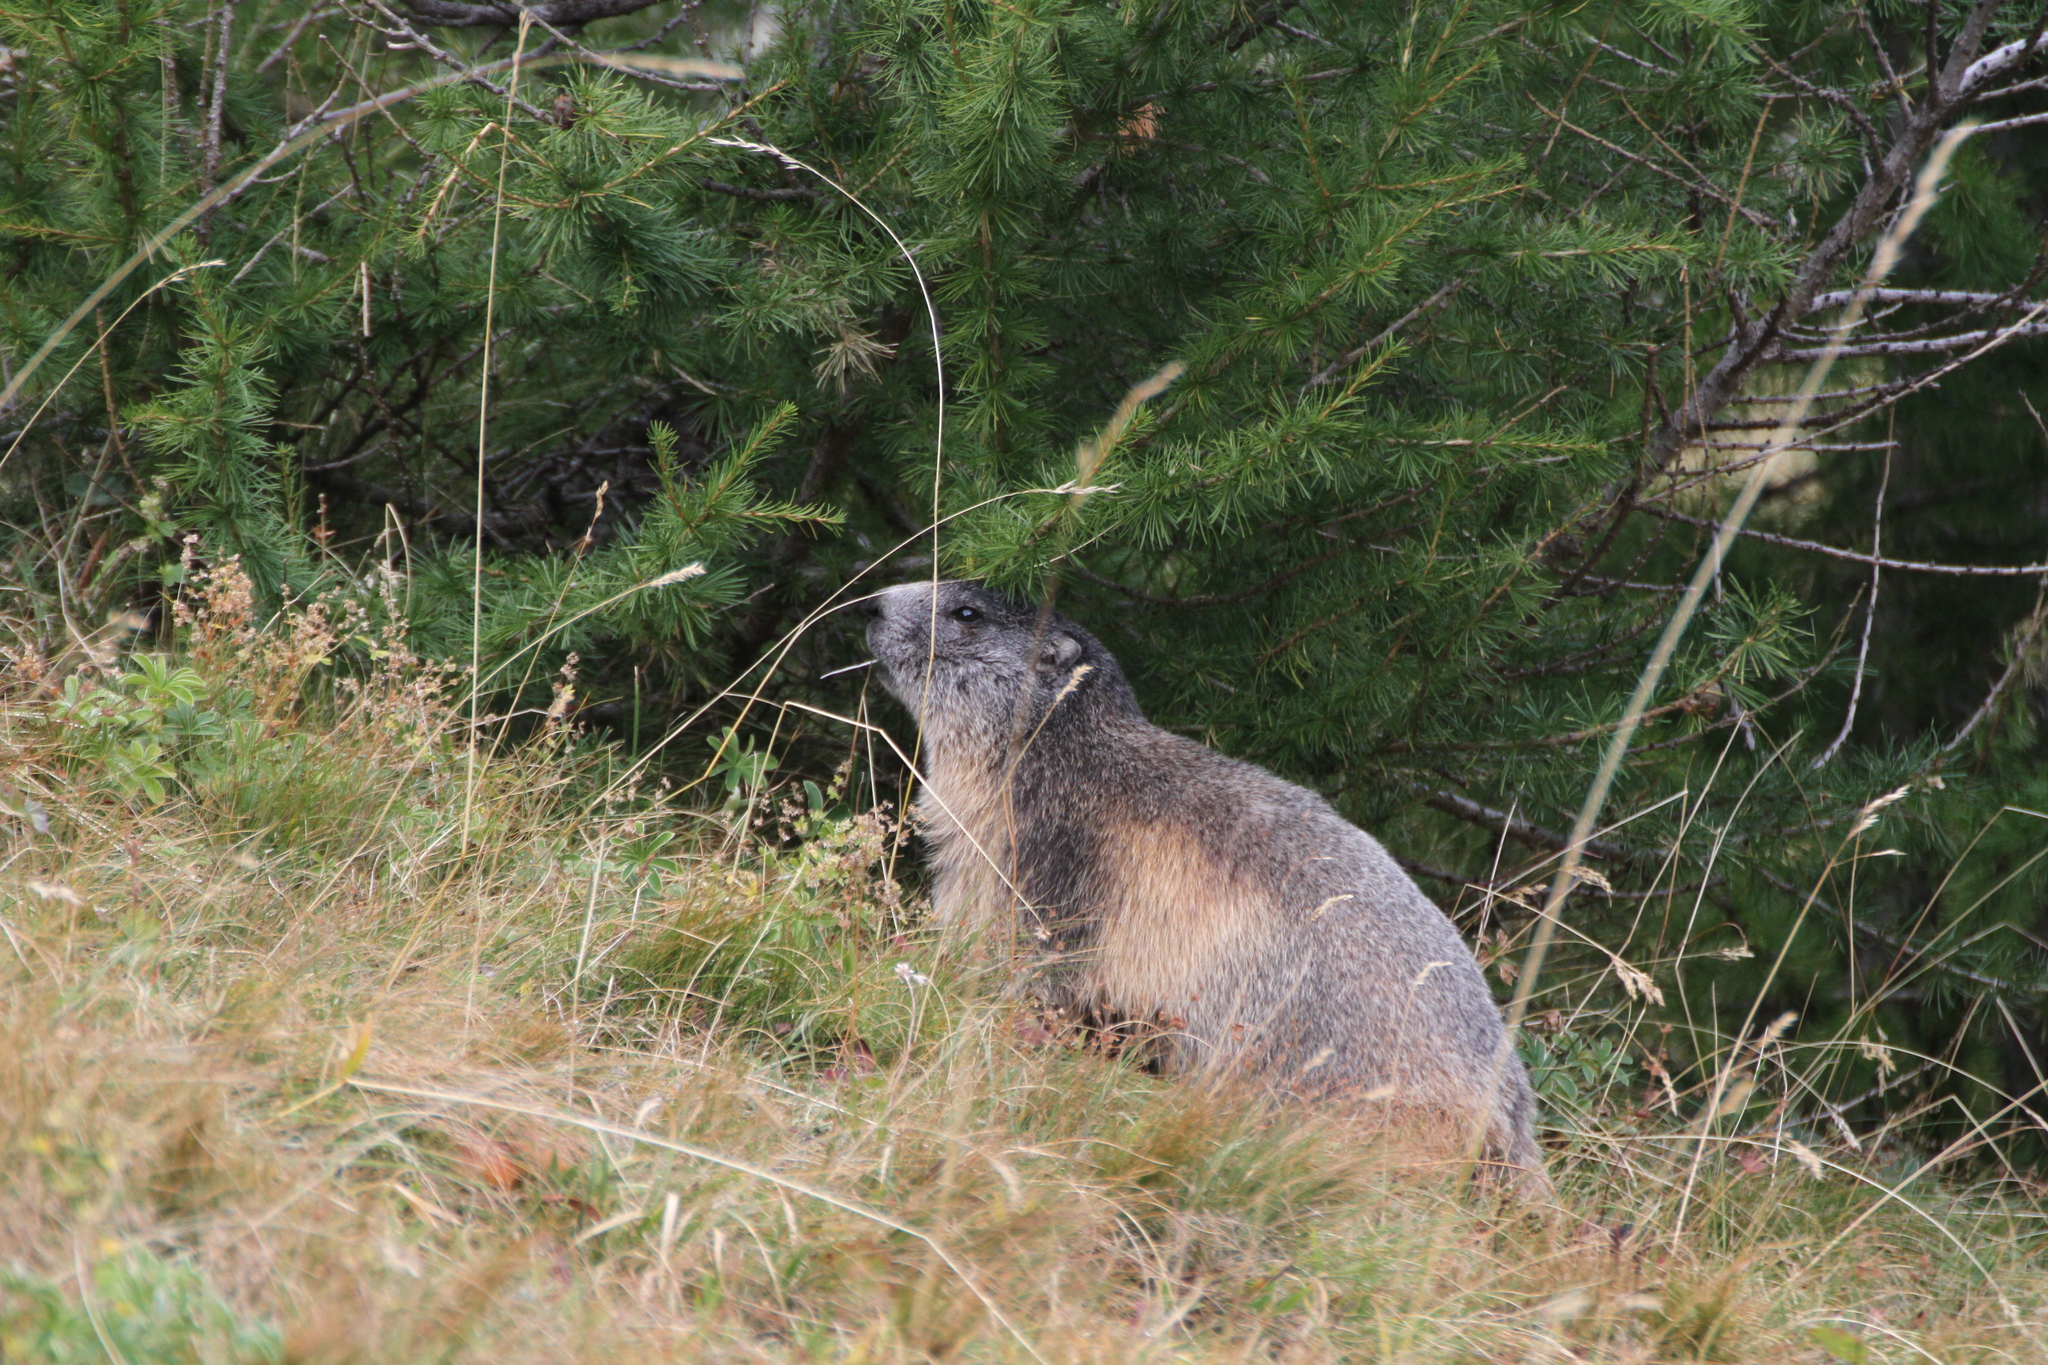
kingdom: Animalia
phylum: Chordata
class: Mammalia
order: Rodentia
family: Sciuridae
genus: Marmota
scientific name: Marmota marmota
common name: Alpine marmot
